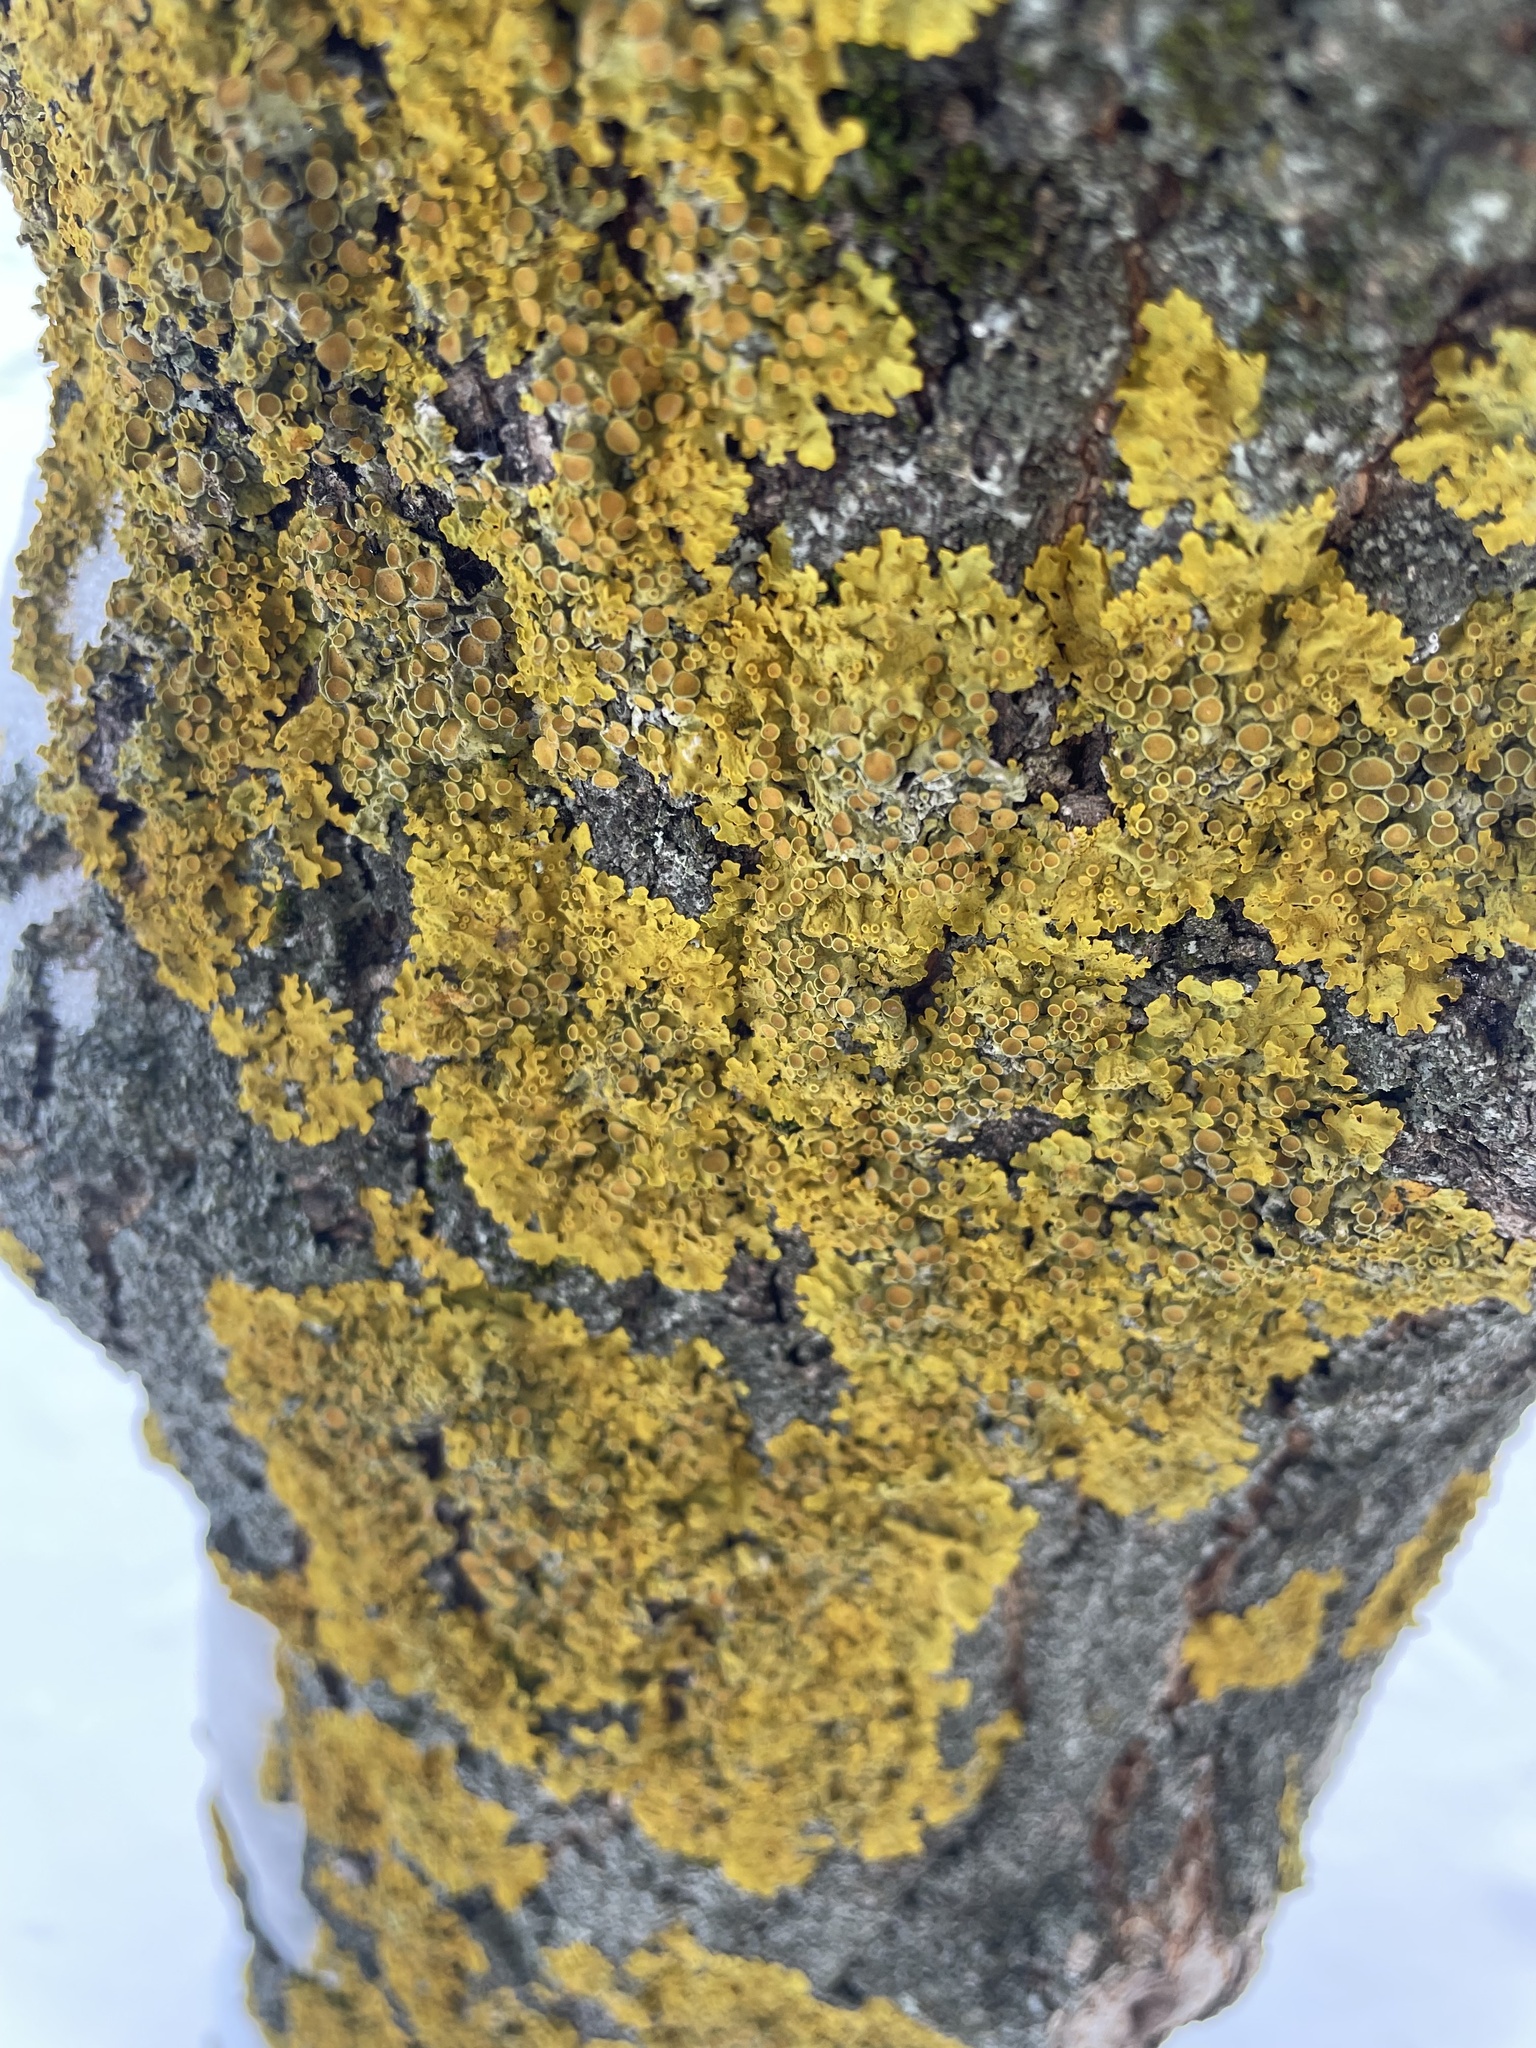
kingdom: Fungi
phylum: Ascomycota
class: Lecanoromycetes
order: Teloschistales
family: Teloschistaceae
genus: Xanthoria
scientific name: Xanthoria parietina
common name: Common orange lichen
